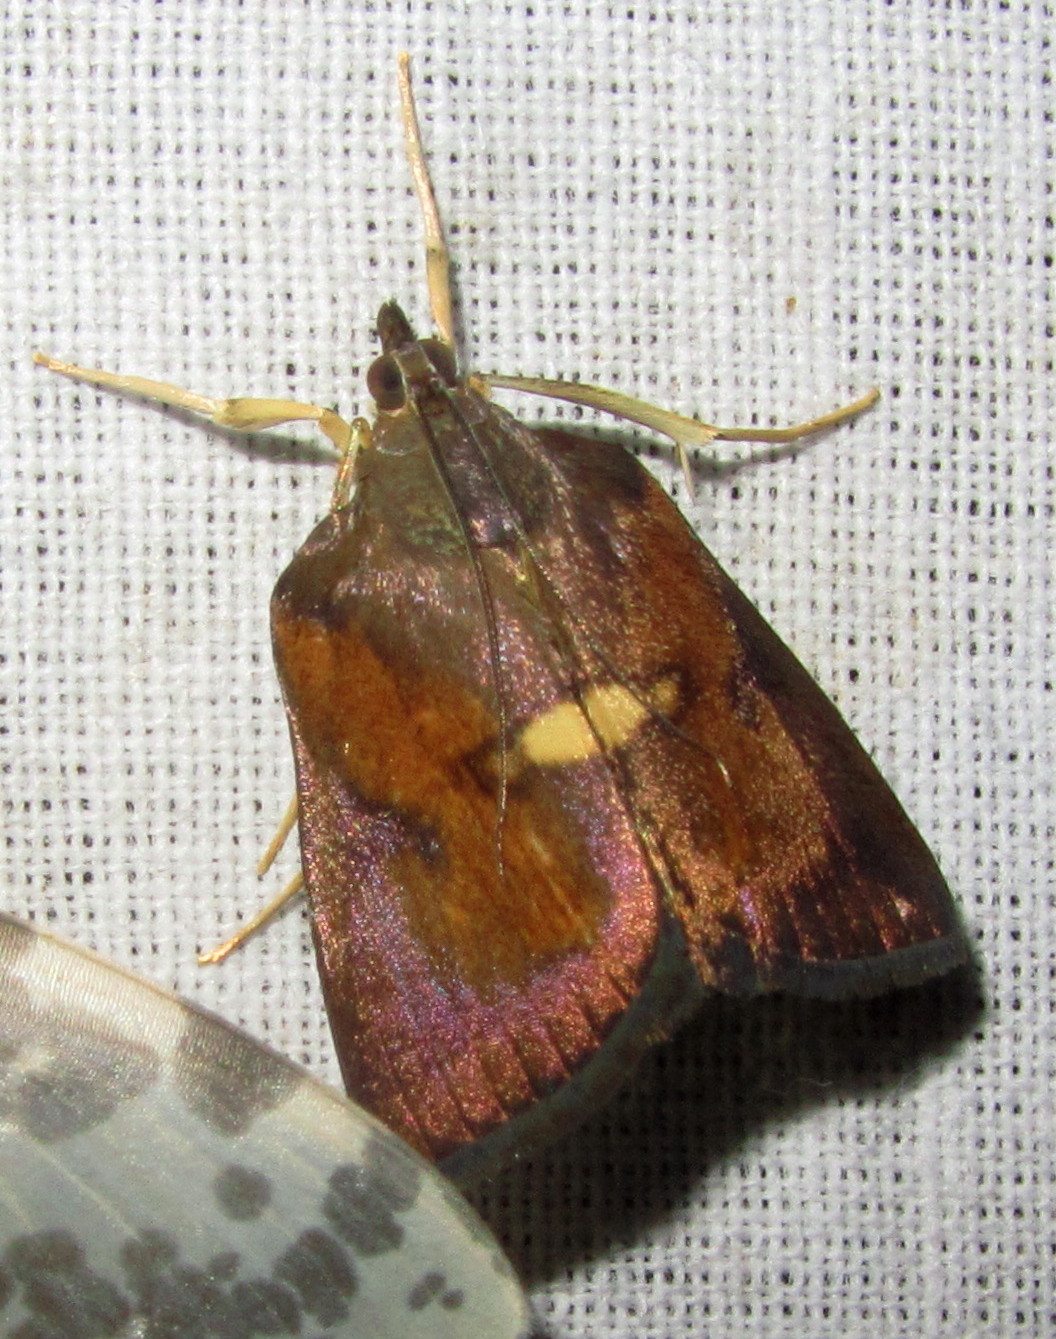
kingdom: Animalia
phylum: Arthropoda
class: Insecta
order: Lepidoptera
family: Crambidae
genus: Agastya
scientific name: Agastya hyblaeoides
